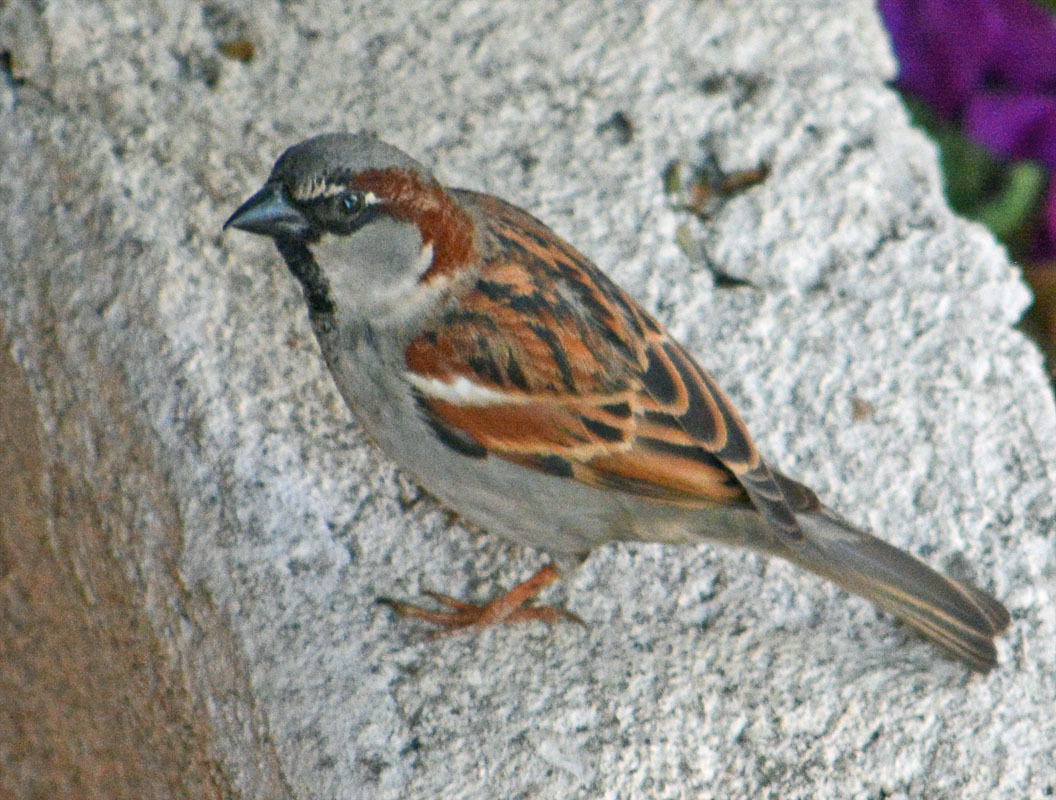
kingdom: Animalia
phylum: Chordata
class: Aves
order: Passeriformes
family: Passeridae
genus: Passer
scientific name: Passer domesticus
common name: House sparrow
